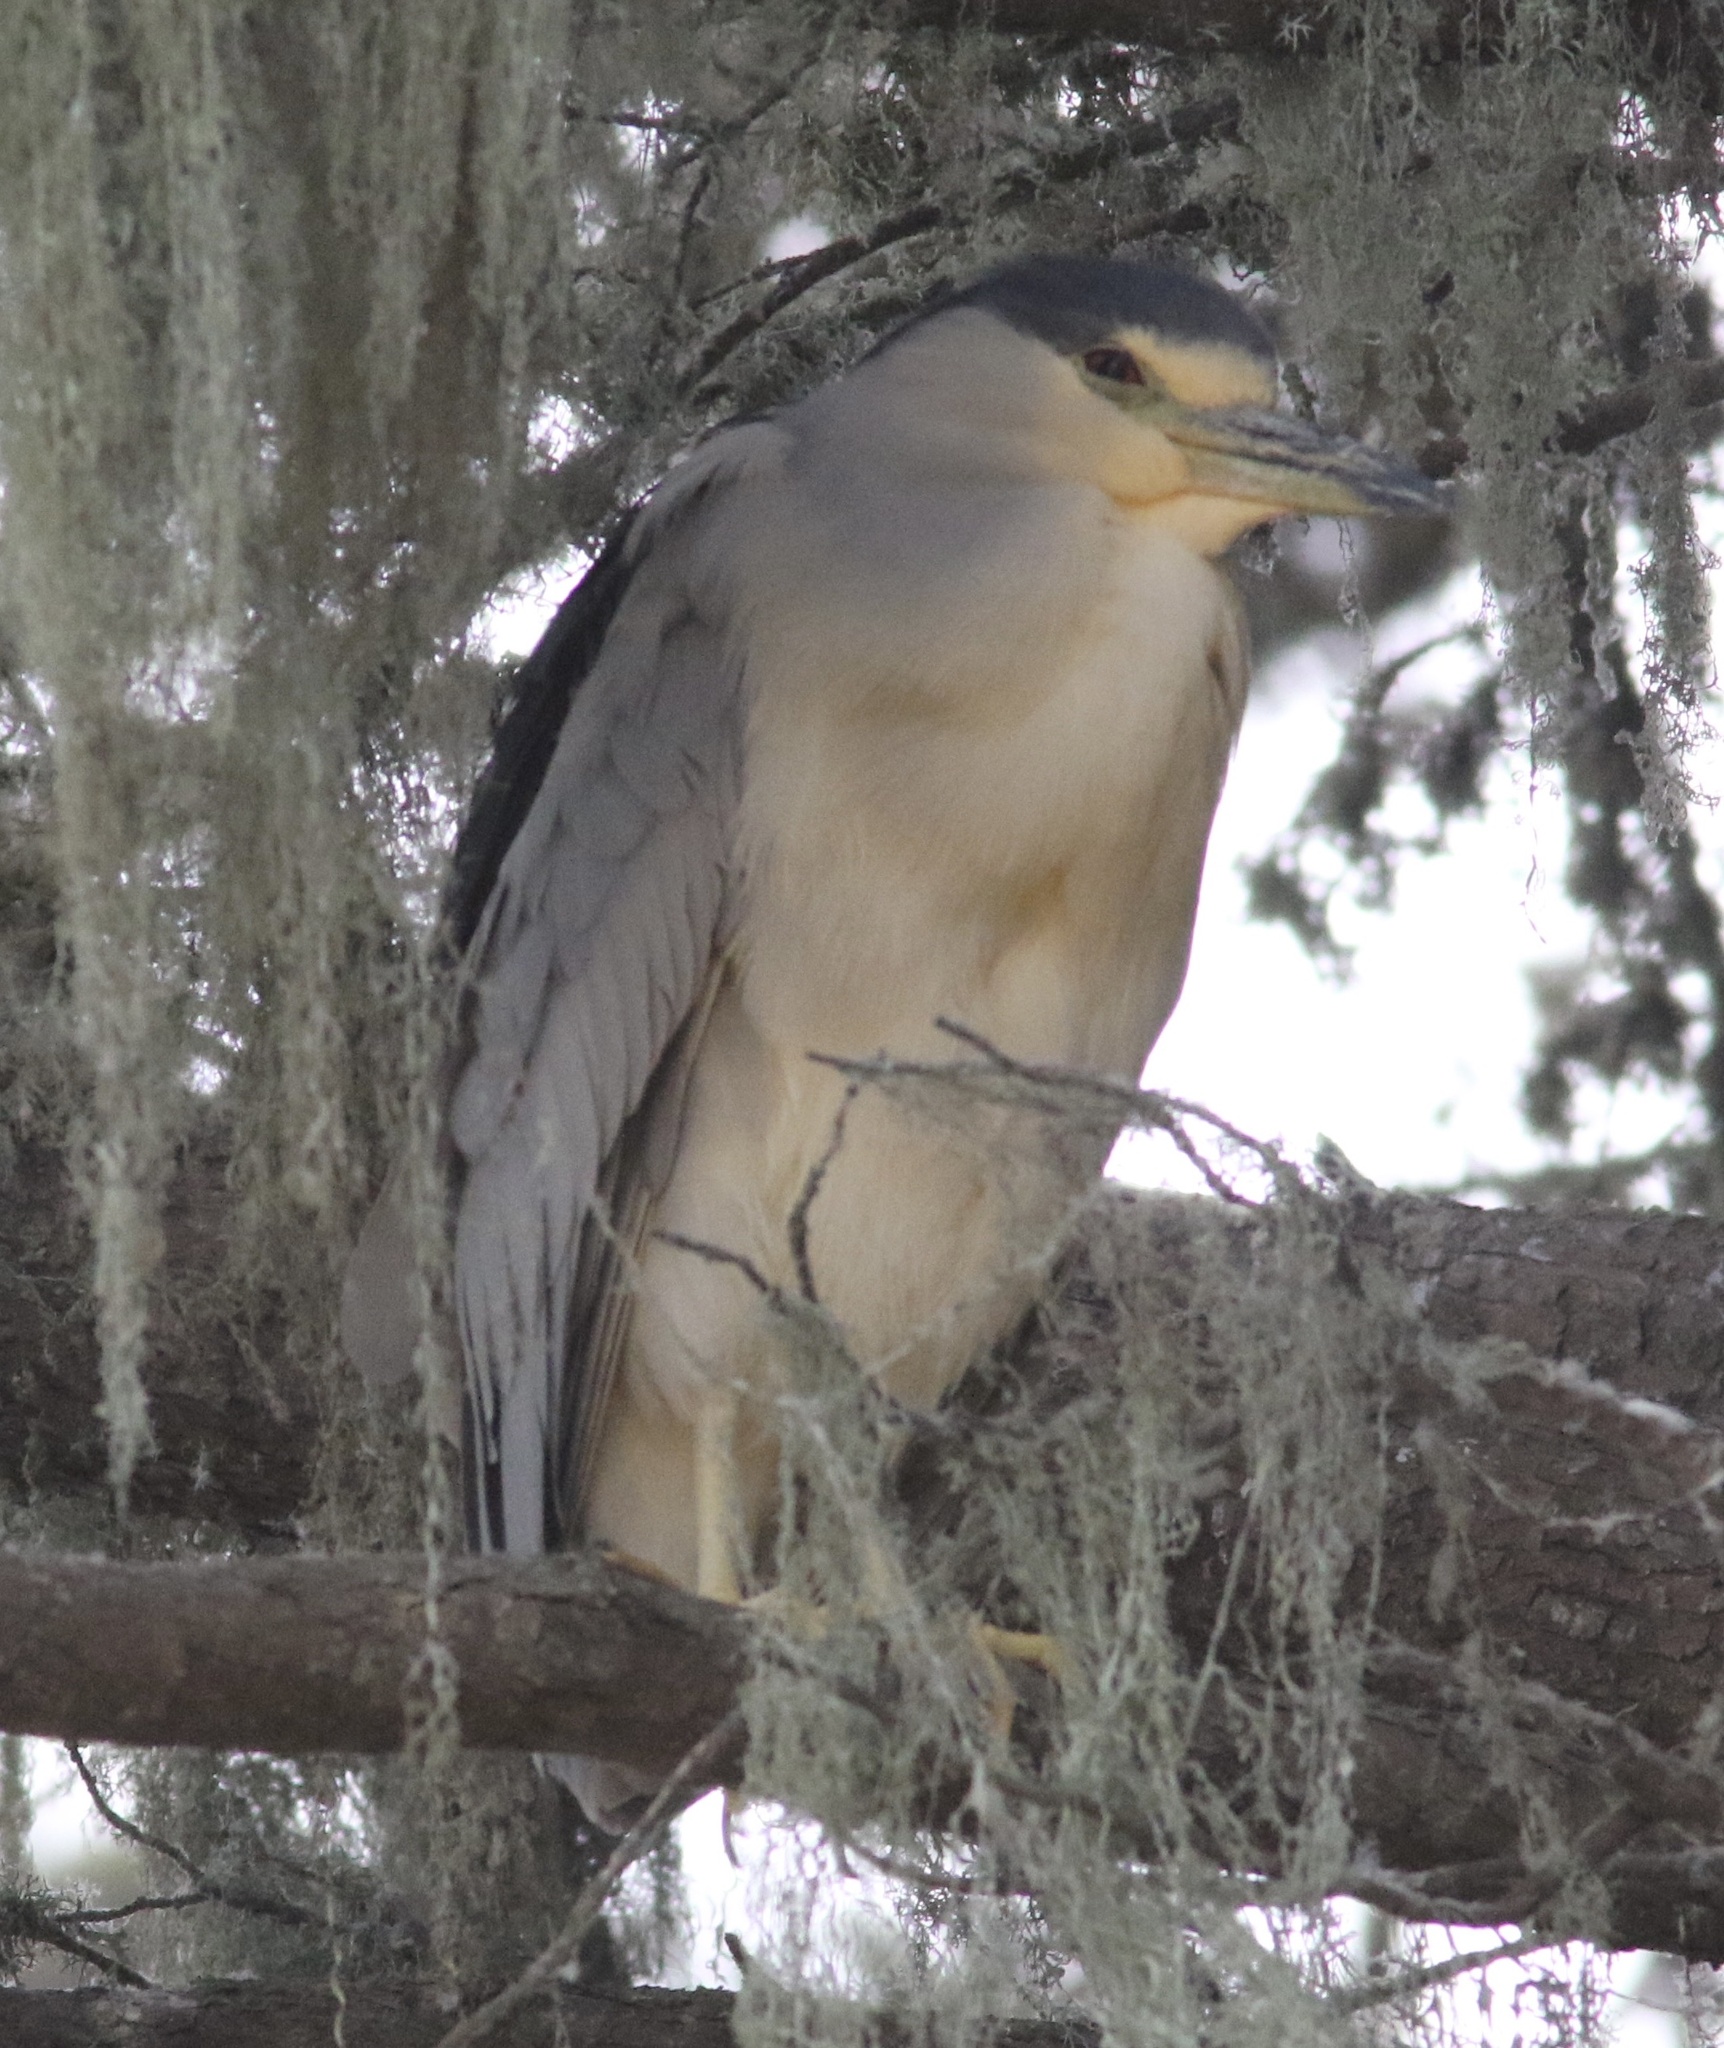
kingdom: Animalia
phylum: Chordata
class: Aves
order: Pelecaniformes
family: Ardeidae
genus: Nycticorax
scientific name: Nycticorax nycticorax
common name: Black-crowned night heron
